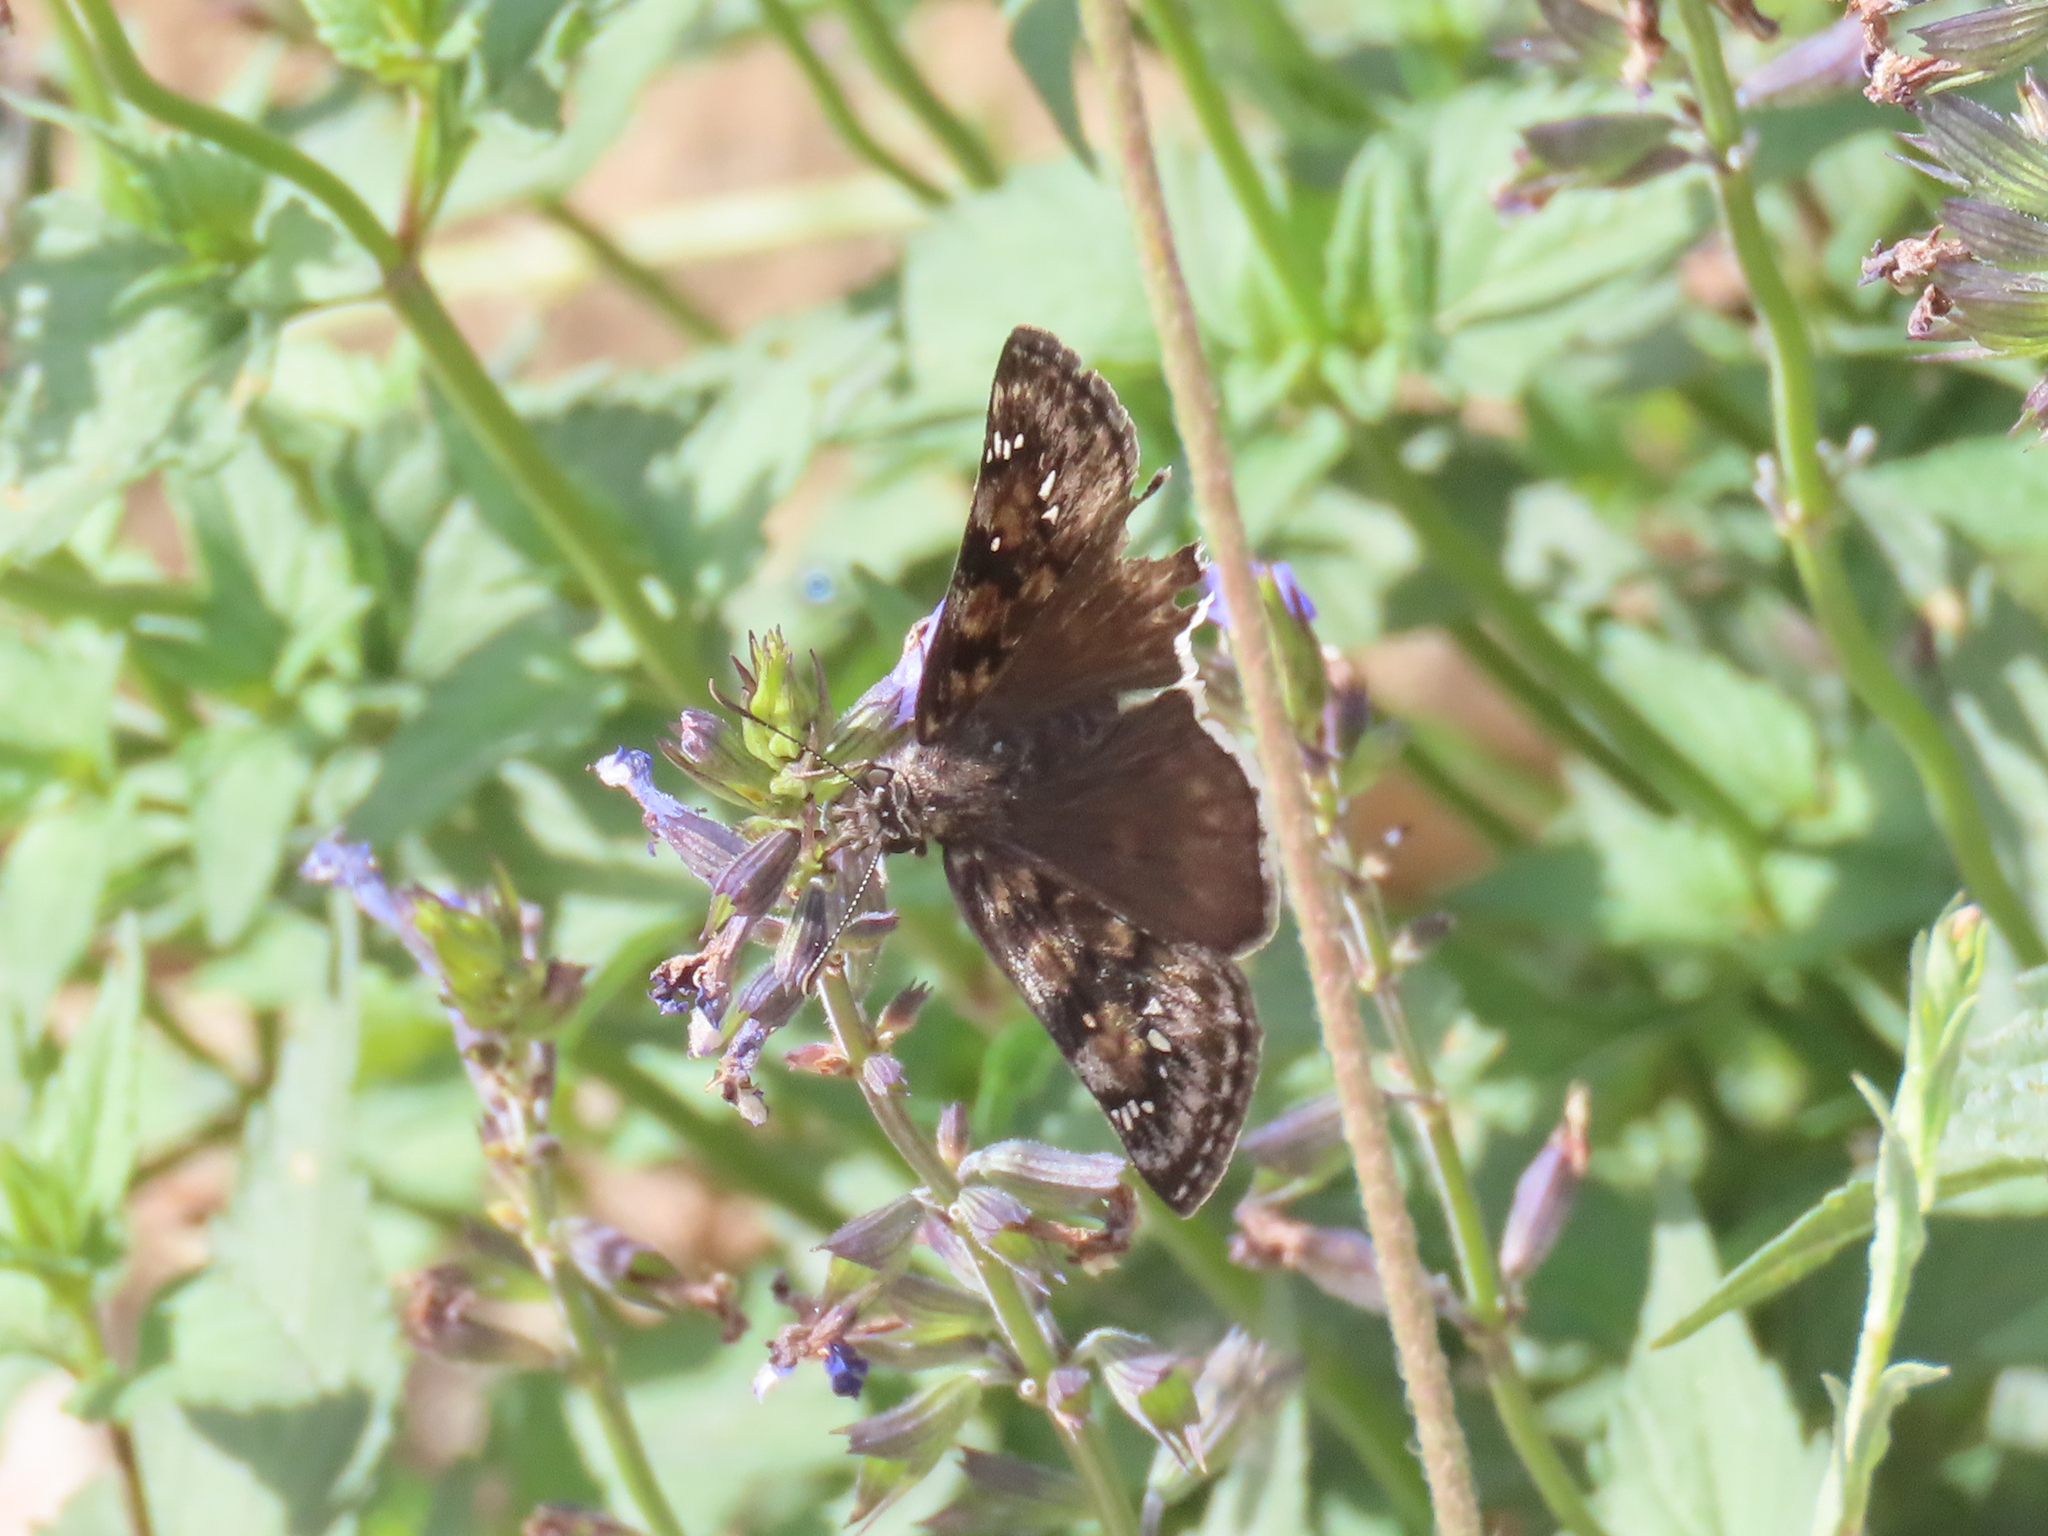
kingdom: Animalia
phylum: Arthropoda
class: Insecta
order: Lepidoptera
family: Hesperiidae
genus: Erynnis
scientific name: Erynnis meridianus
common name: Meridian duskywing
